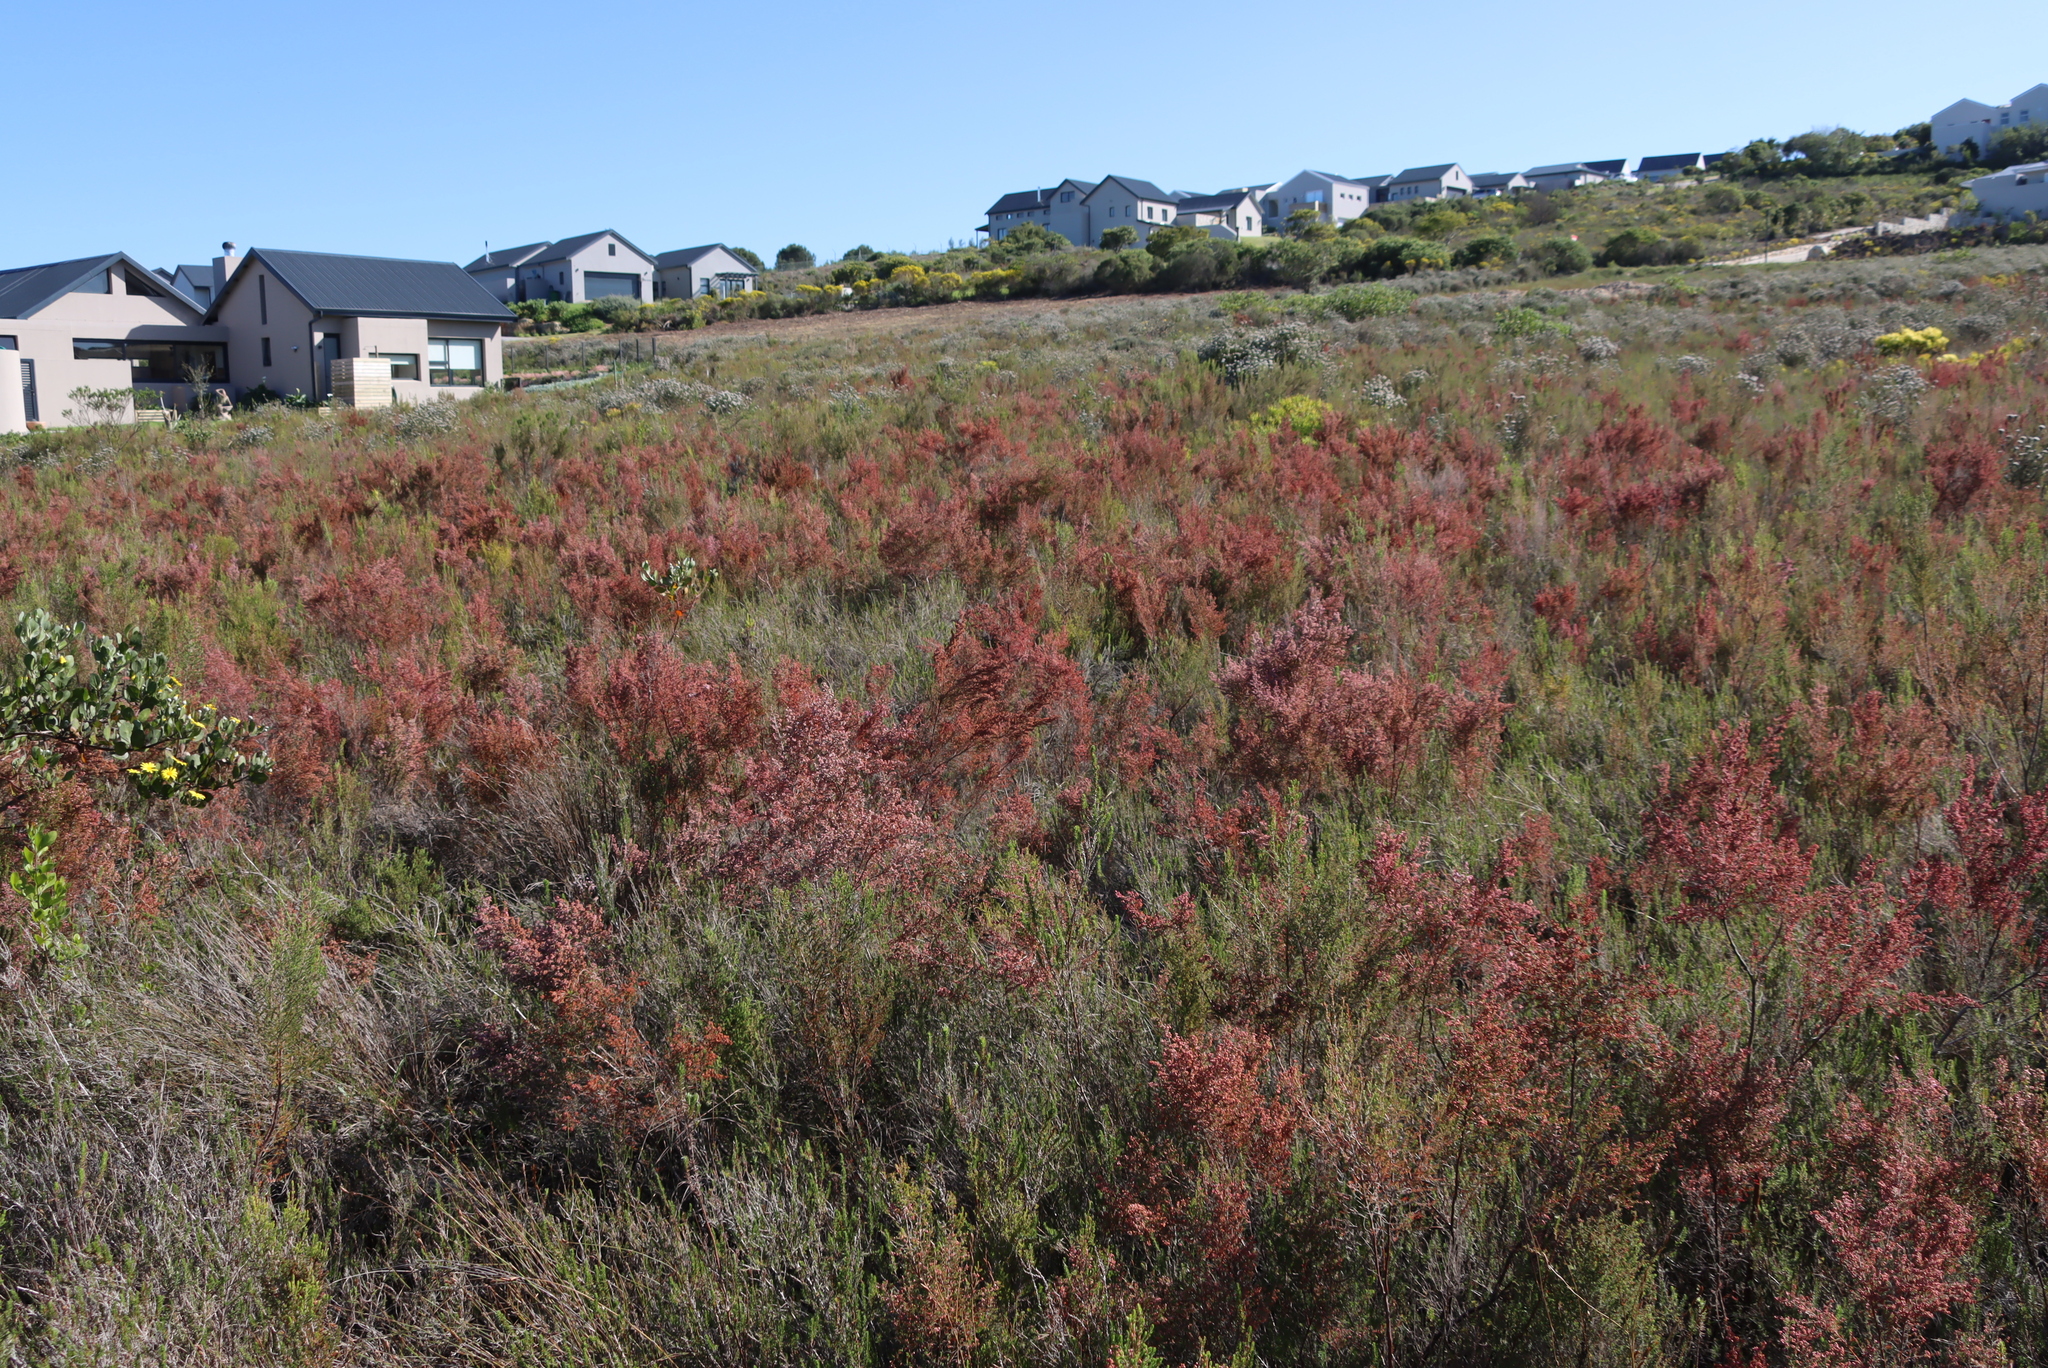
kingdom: Plantae
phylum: Tracheophyta
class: Magnoliopsida
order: Ericales
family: Ericaceae
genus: Erica
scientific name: Erica peltata
